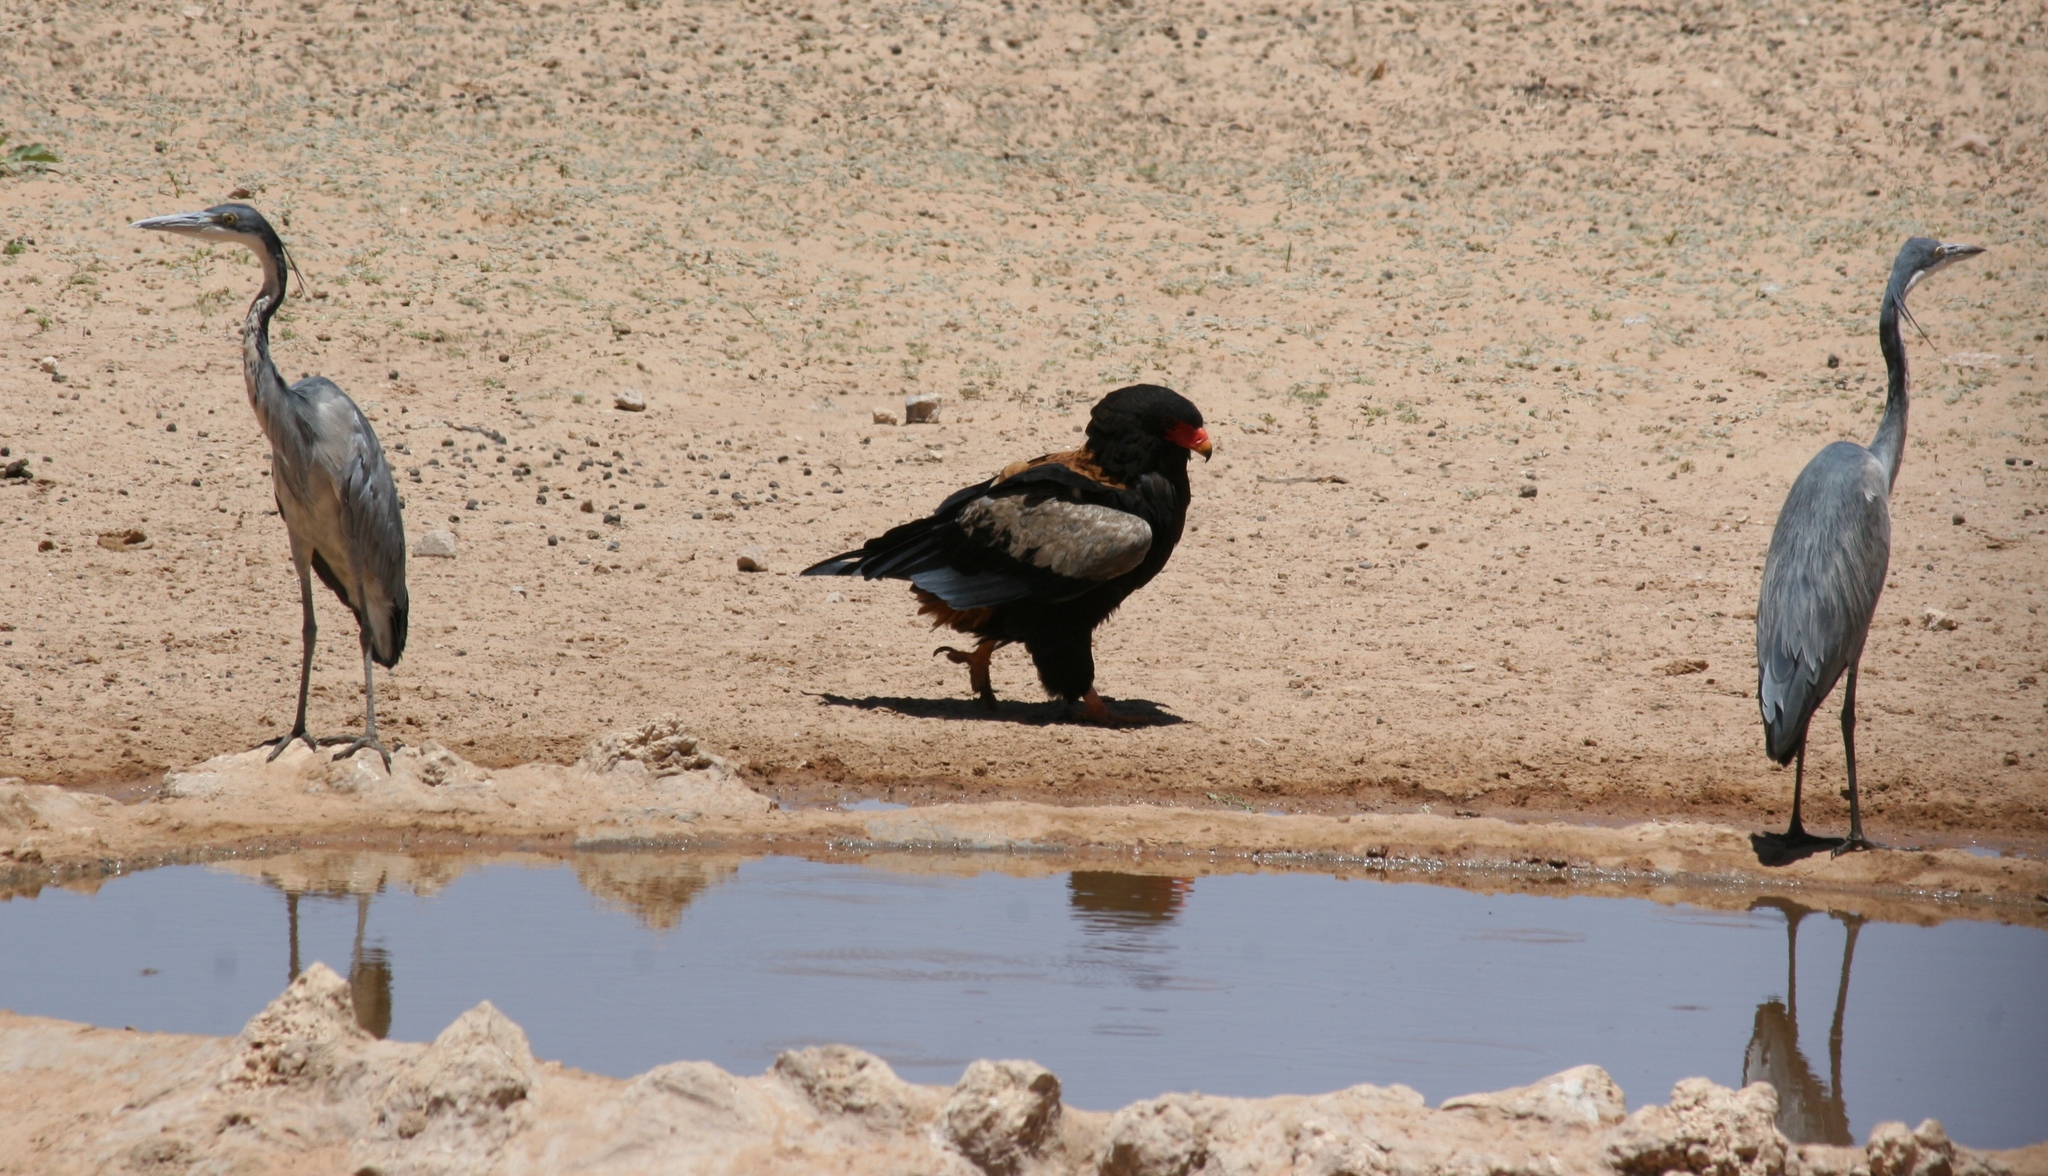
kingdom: Animalia
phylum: Chordata
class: Aves
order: Accipitriformes
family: Accipitridae
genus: Terathopius
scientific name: Terathopius ecaudatus
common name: Bateleur
